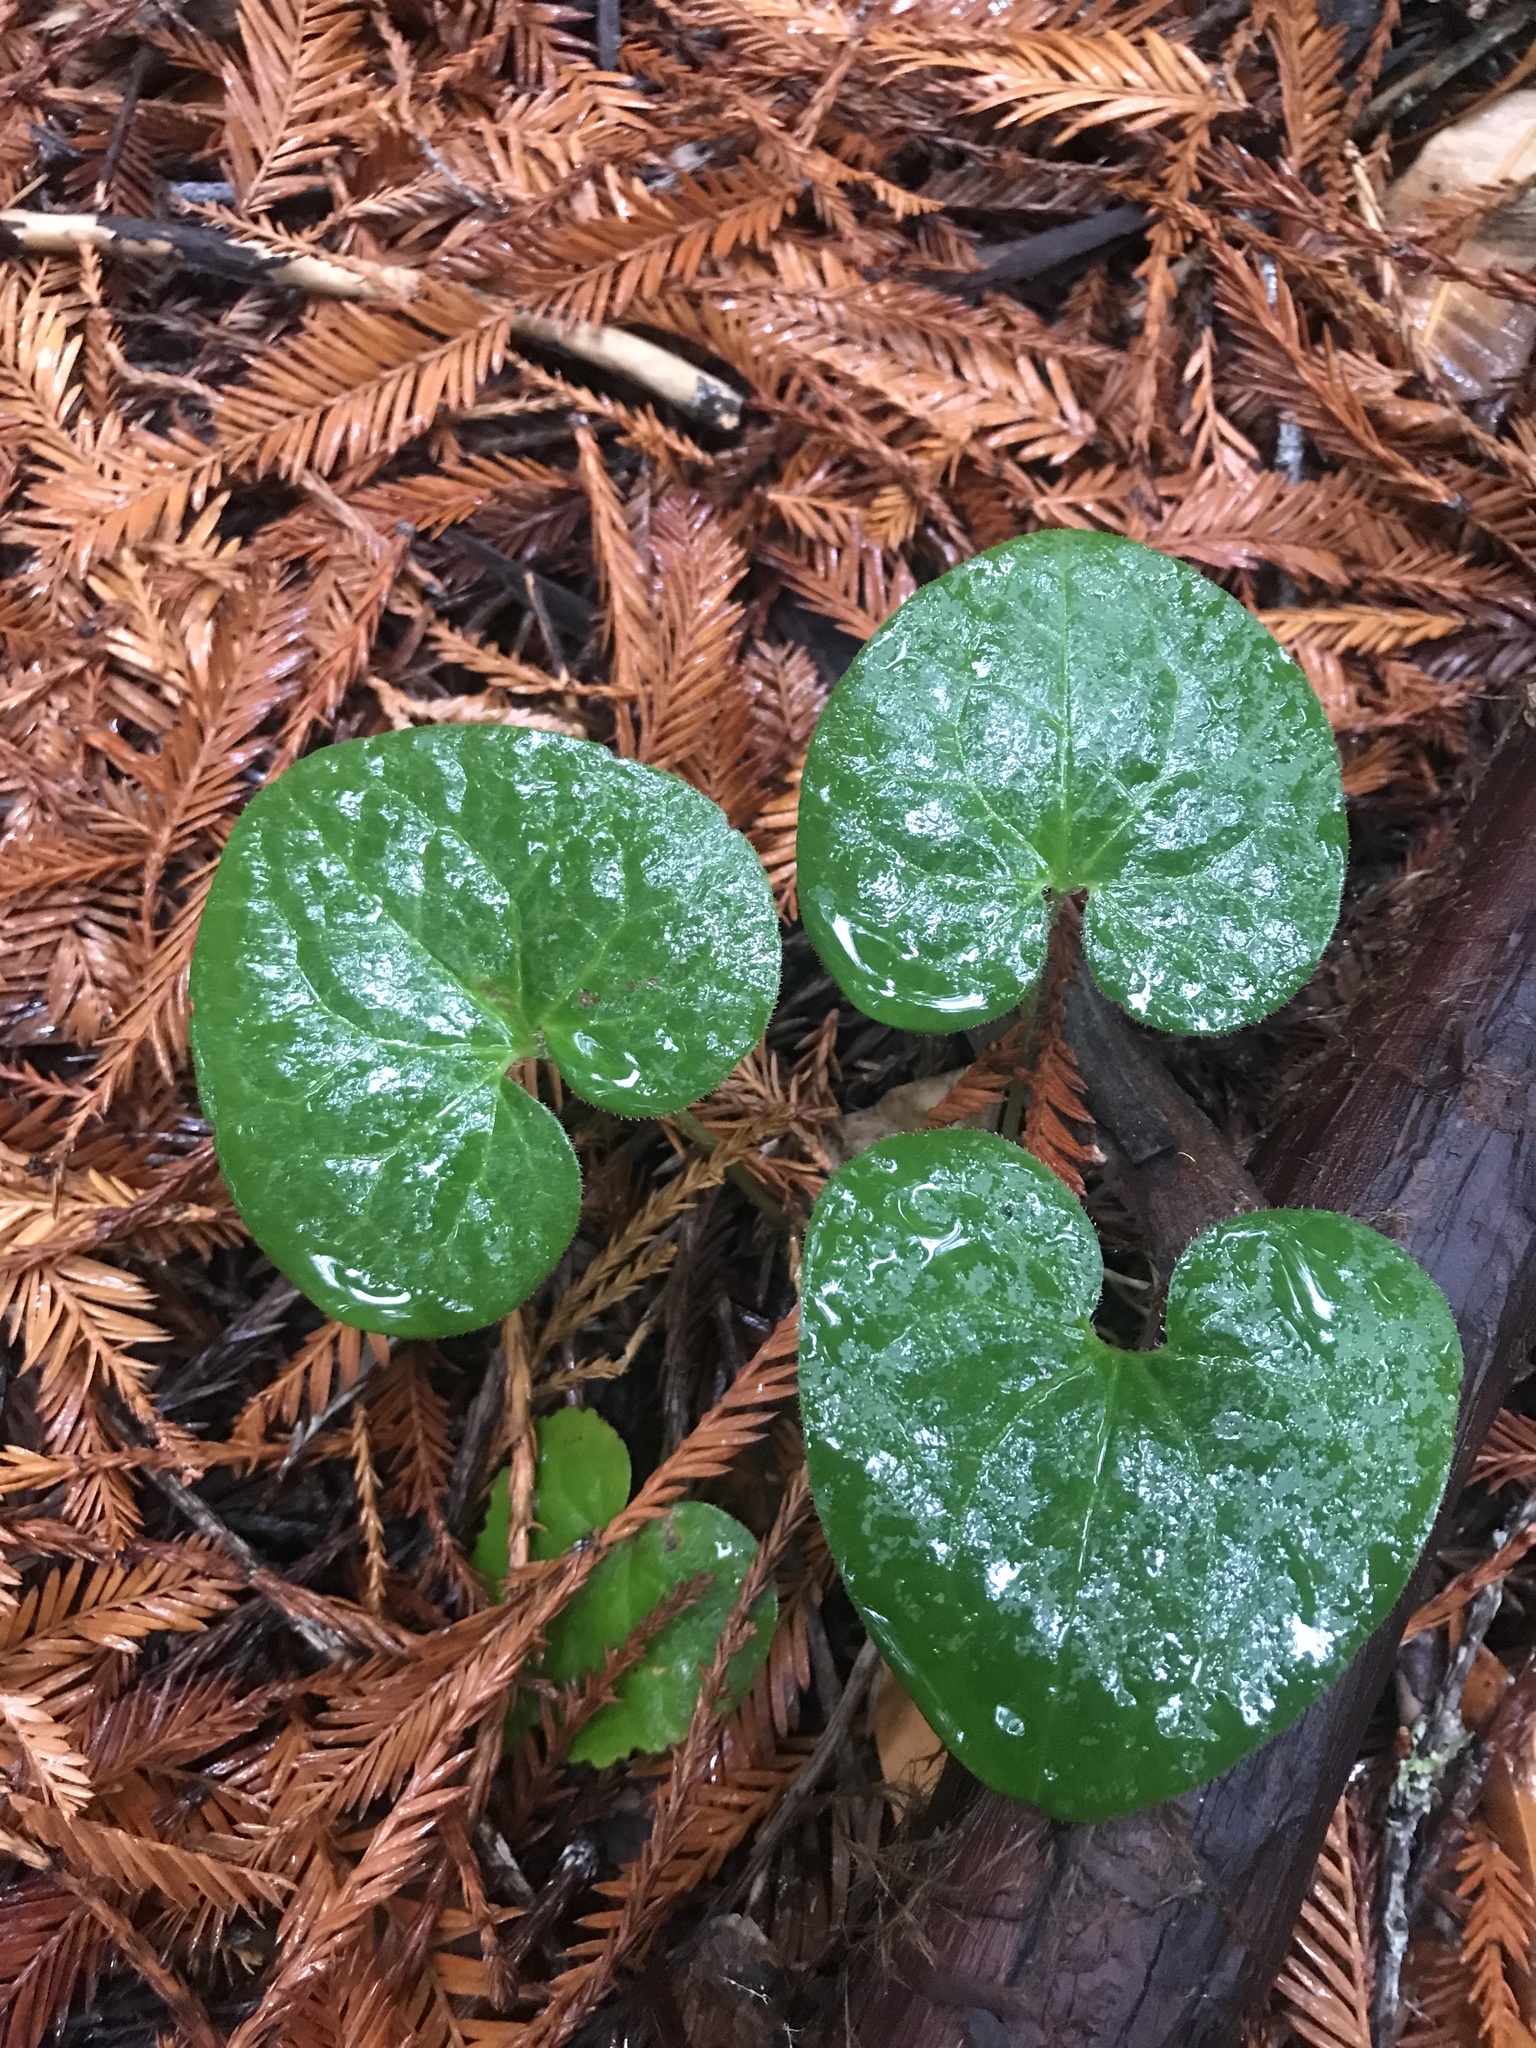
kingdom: Plantae
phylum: Tracheophyta
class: Magnoliopsida
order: Piperales
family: Aristolochiaceae
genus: Asarum
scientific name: Asarum caudatum
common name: Wild ginger
